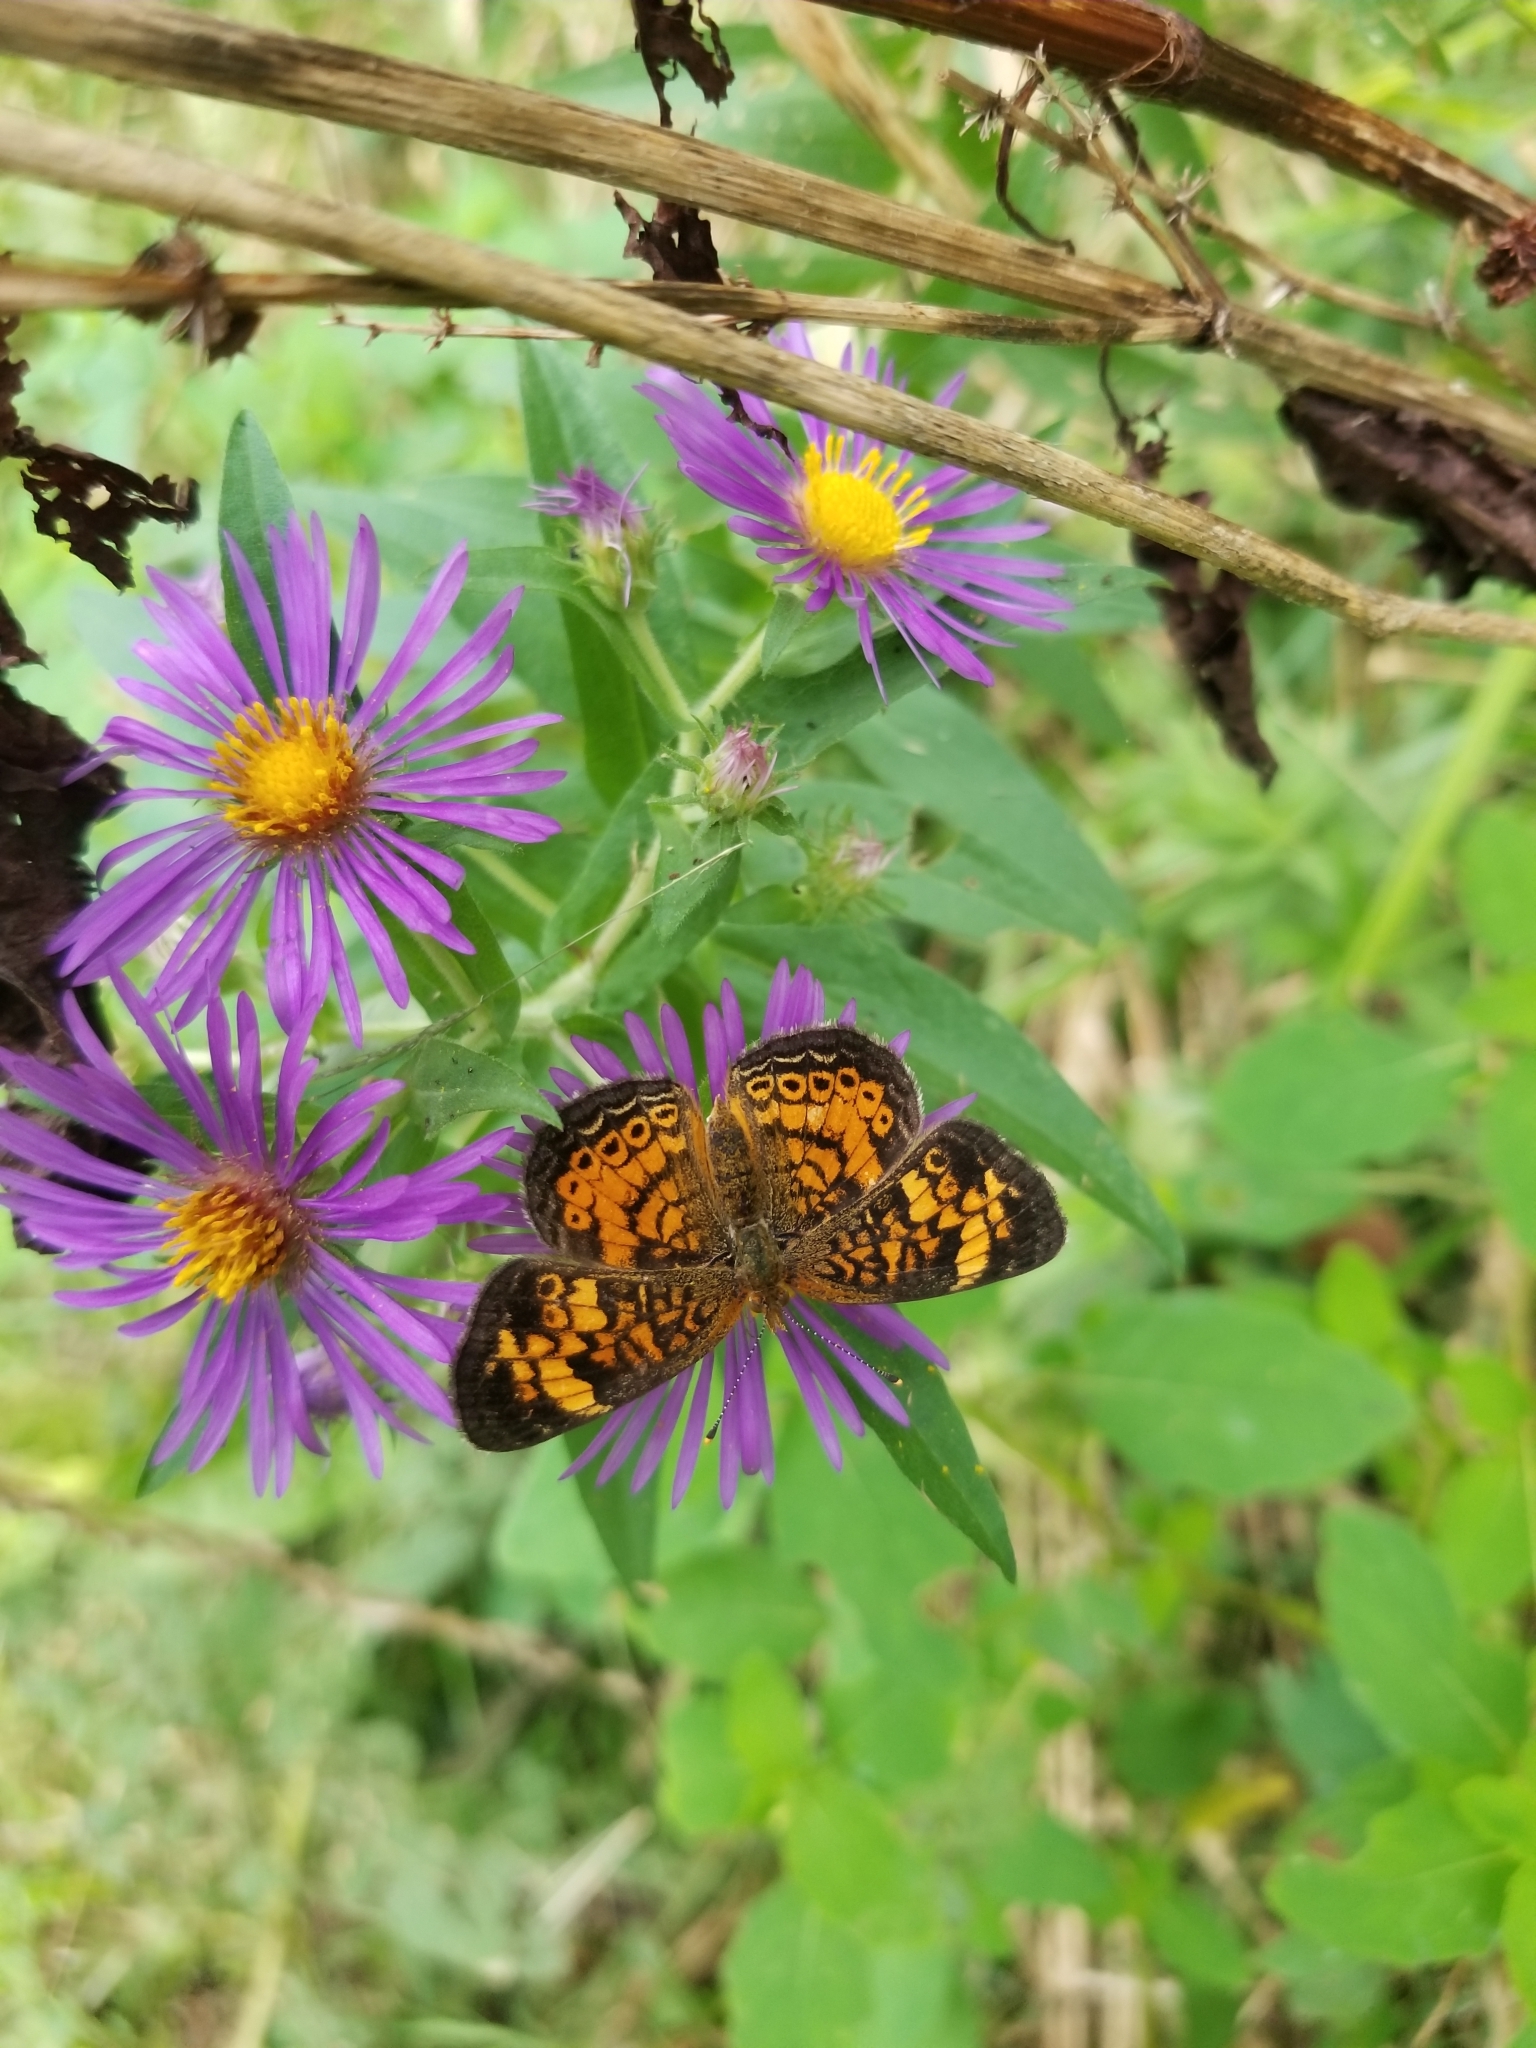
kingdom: Animalia
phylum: Arthropoda
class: Insecta
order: Lepidoptera
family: Nymphalidae
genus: Phyciodes
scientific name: Phyciodes tharos
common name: Pearl crescent
